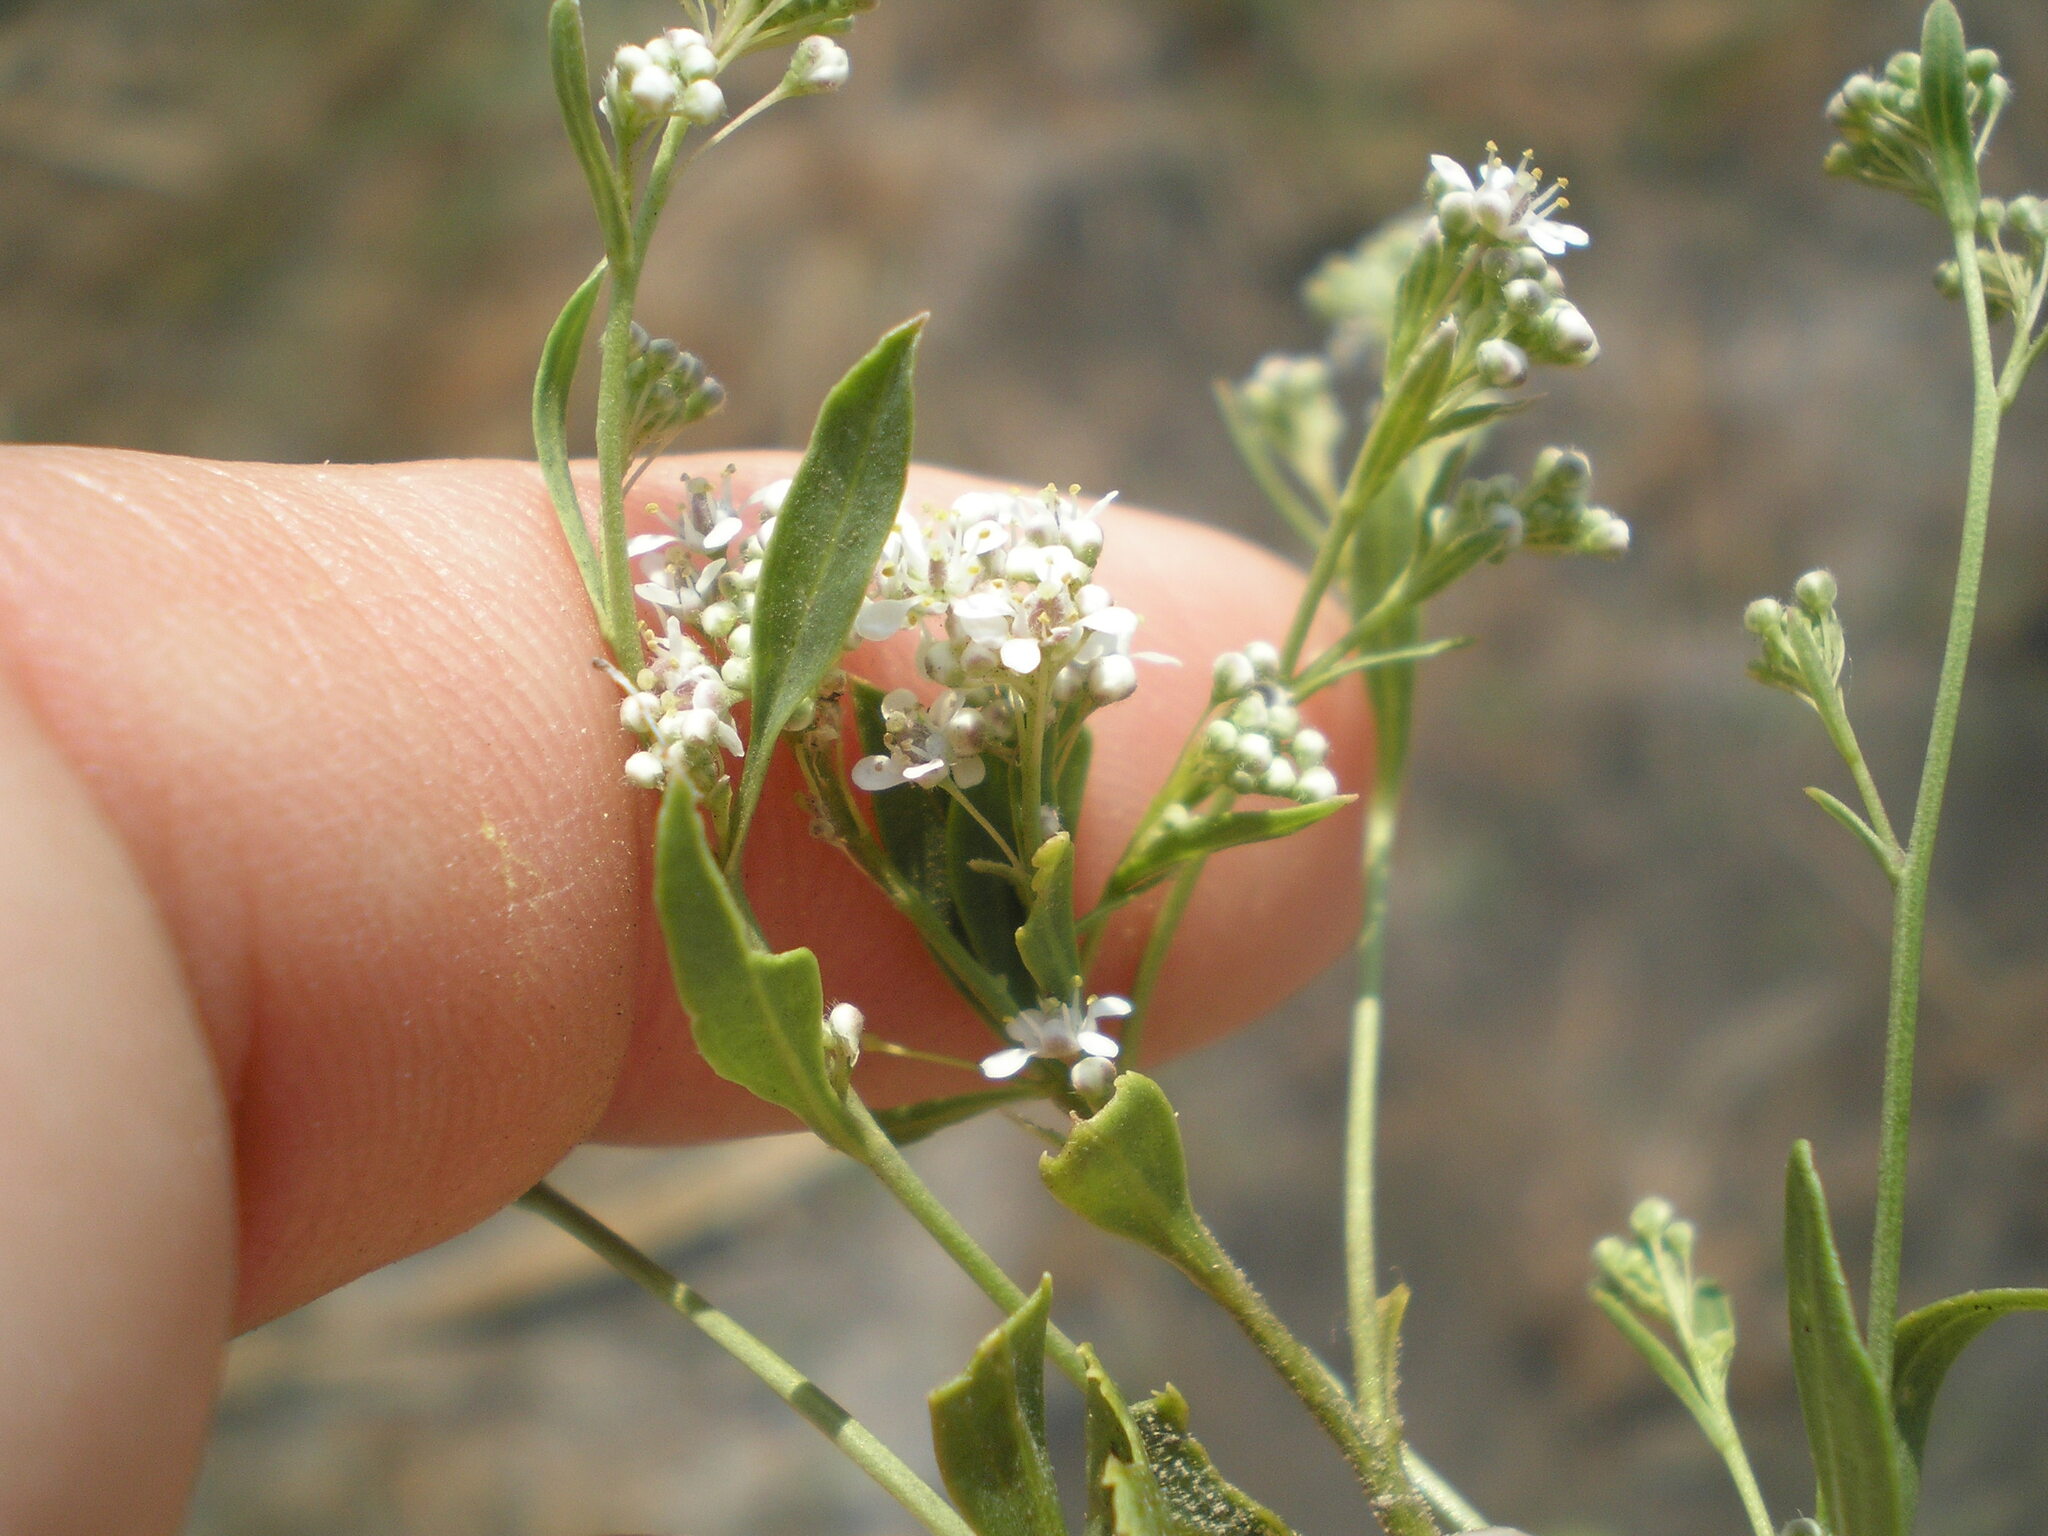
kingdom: Plantae
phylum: Tracheophyta
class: Magnoliopsida
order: Brassicales
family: Brassicaceae
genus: Lepidium
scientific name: Lepidium latifolium
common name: Dittander
